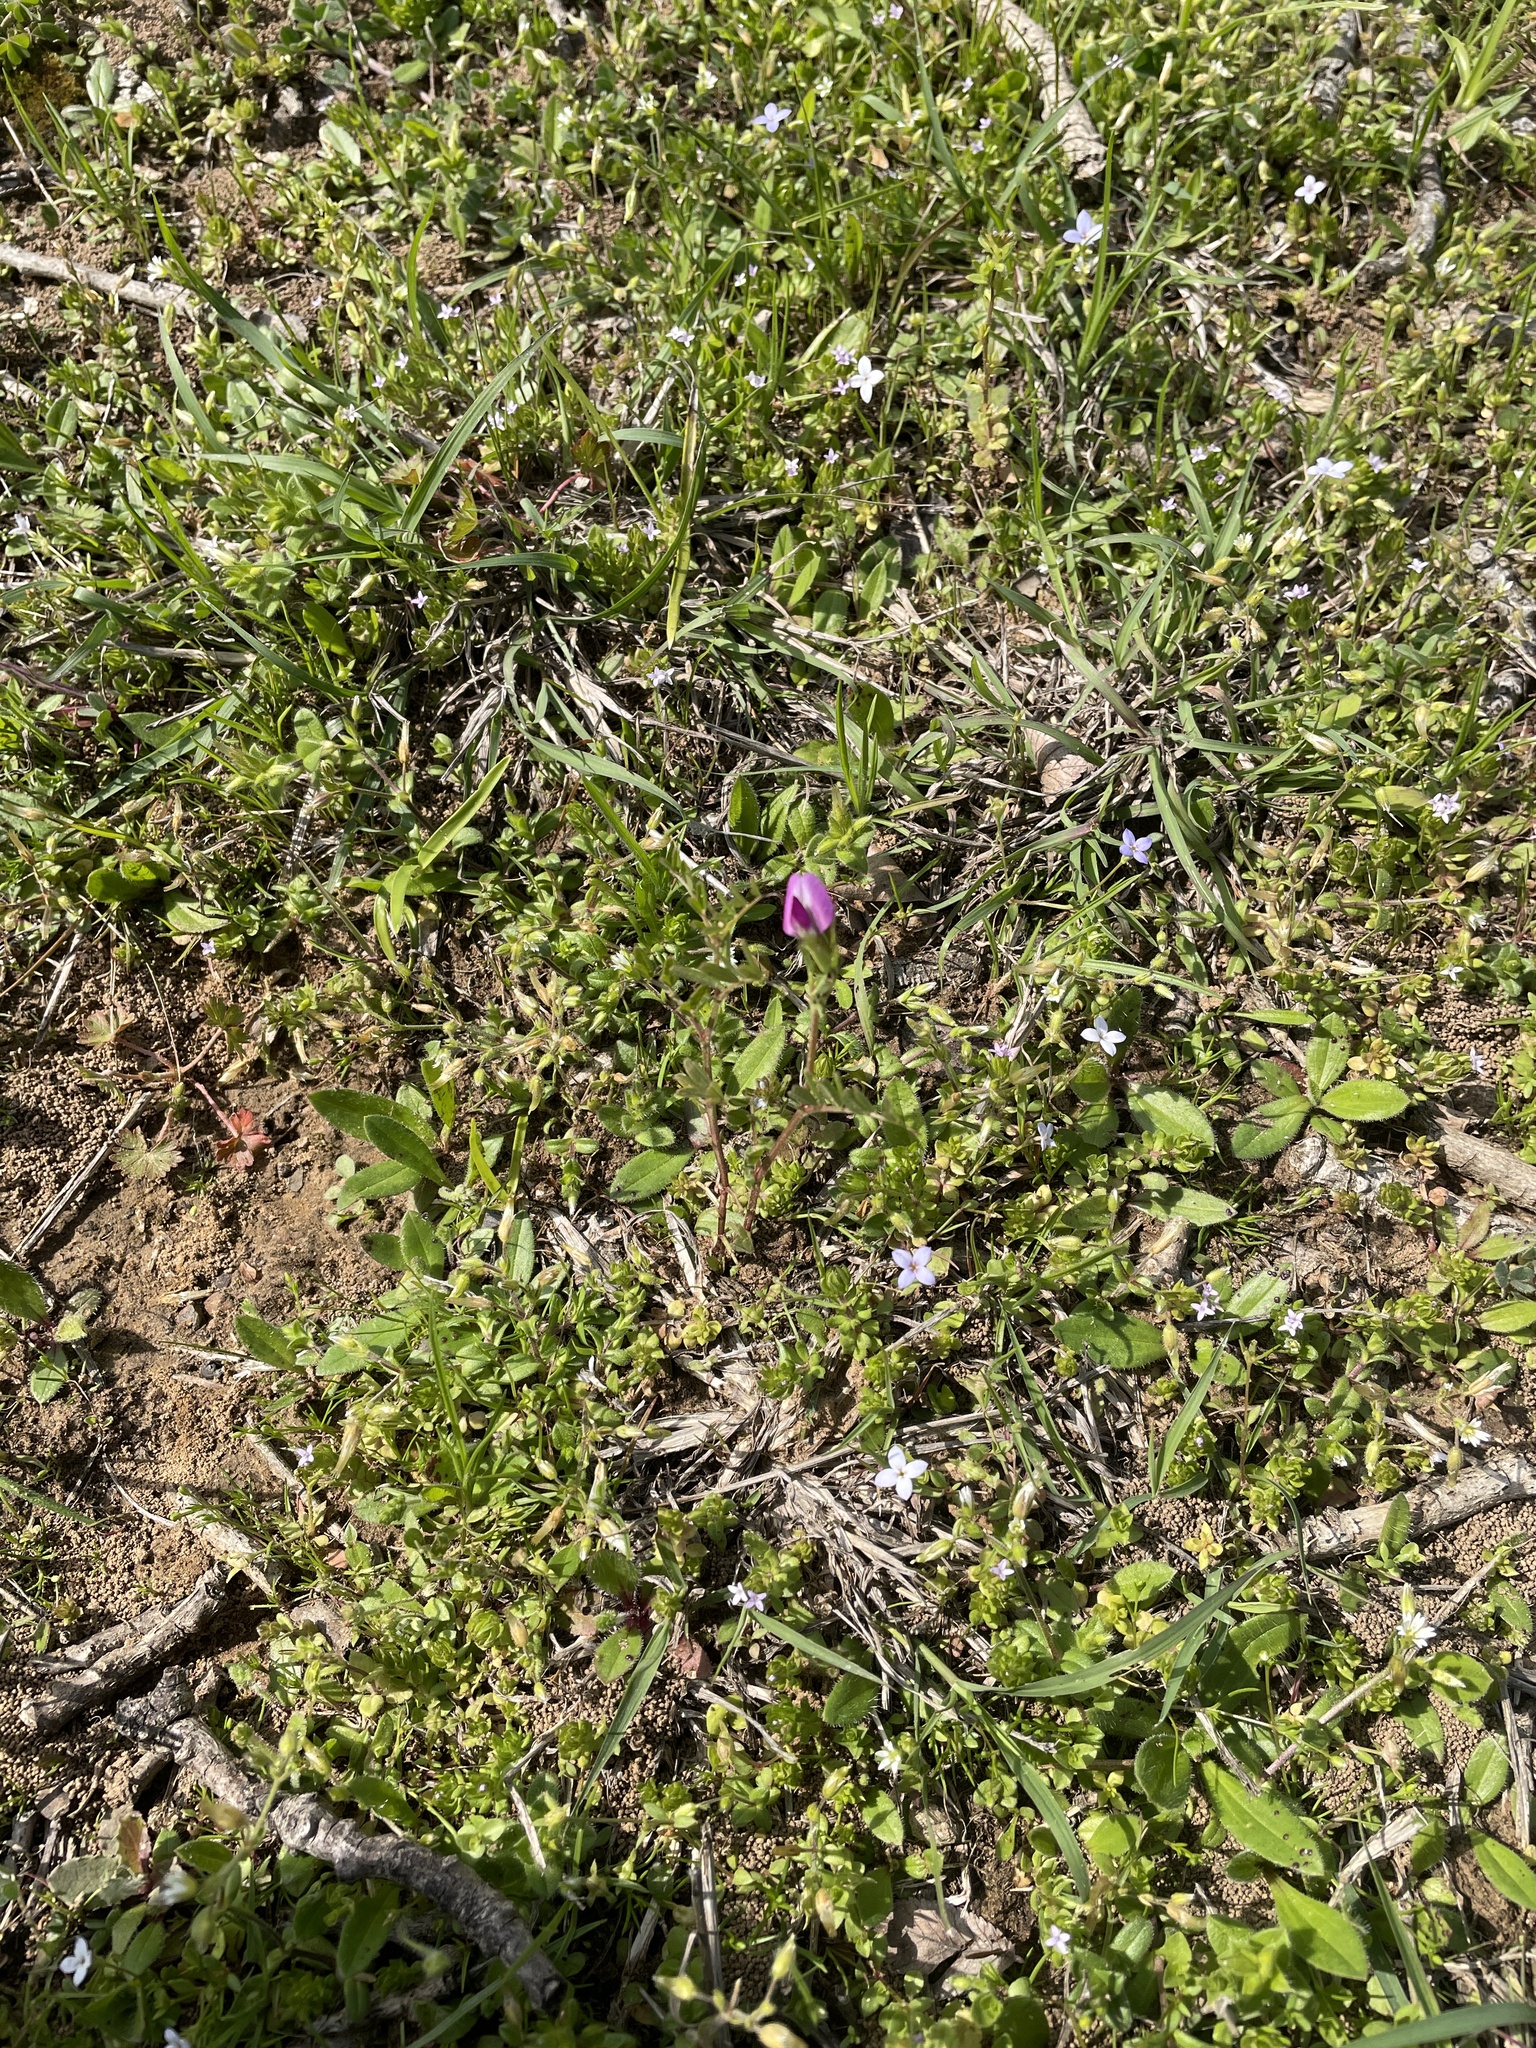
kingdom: Plantae
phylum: Tracheophyta
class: Magnoliopsida
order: Fabales
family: Fabaceae
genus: Vicia
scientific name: Vicia sativa
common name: Garden vetch
